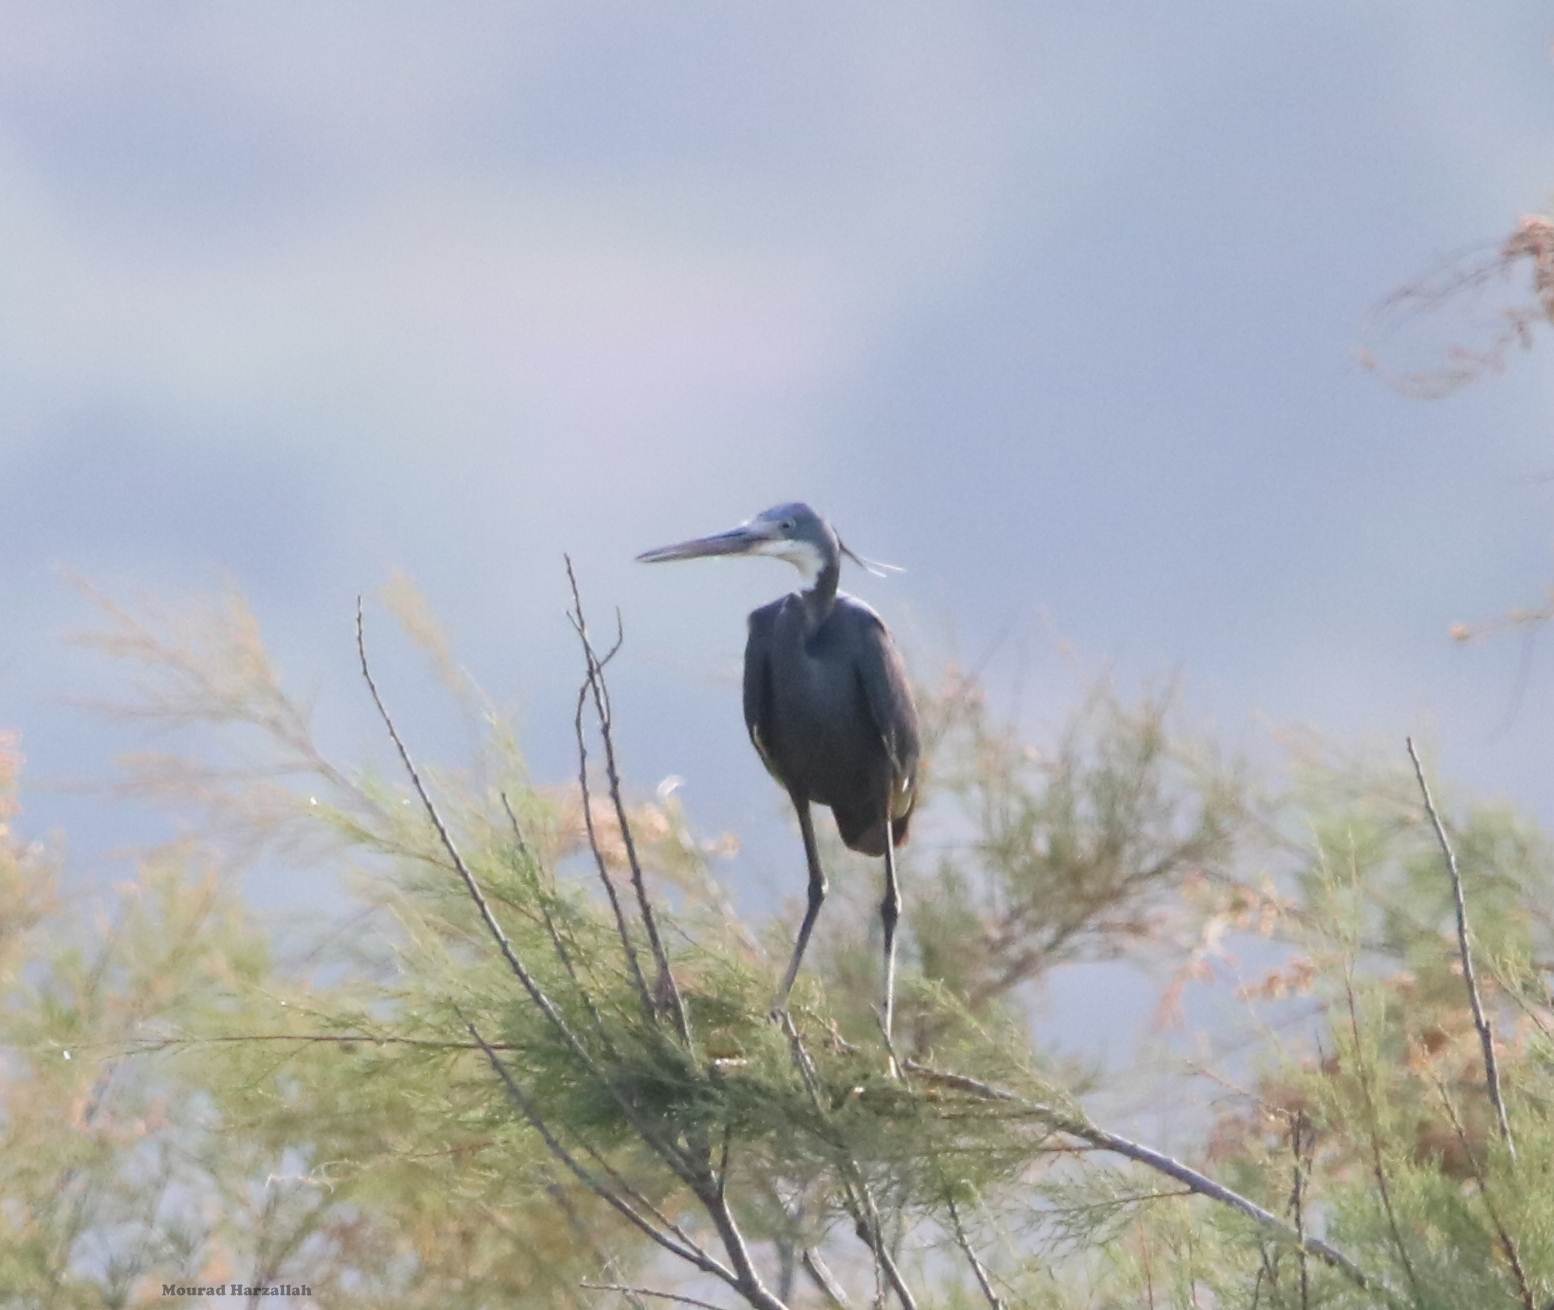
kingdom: Animalia
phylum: Chordata
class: Aves
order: Pelecaniformes
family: Ardeidae
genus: Egretta
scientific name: Egretta gularis
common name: Western reef-heron
